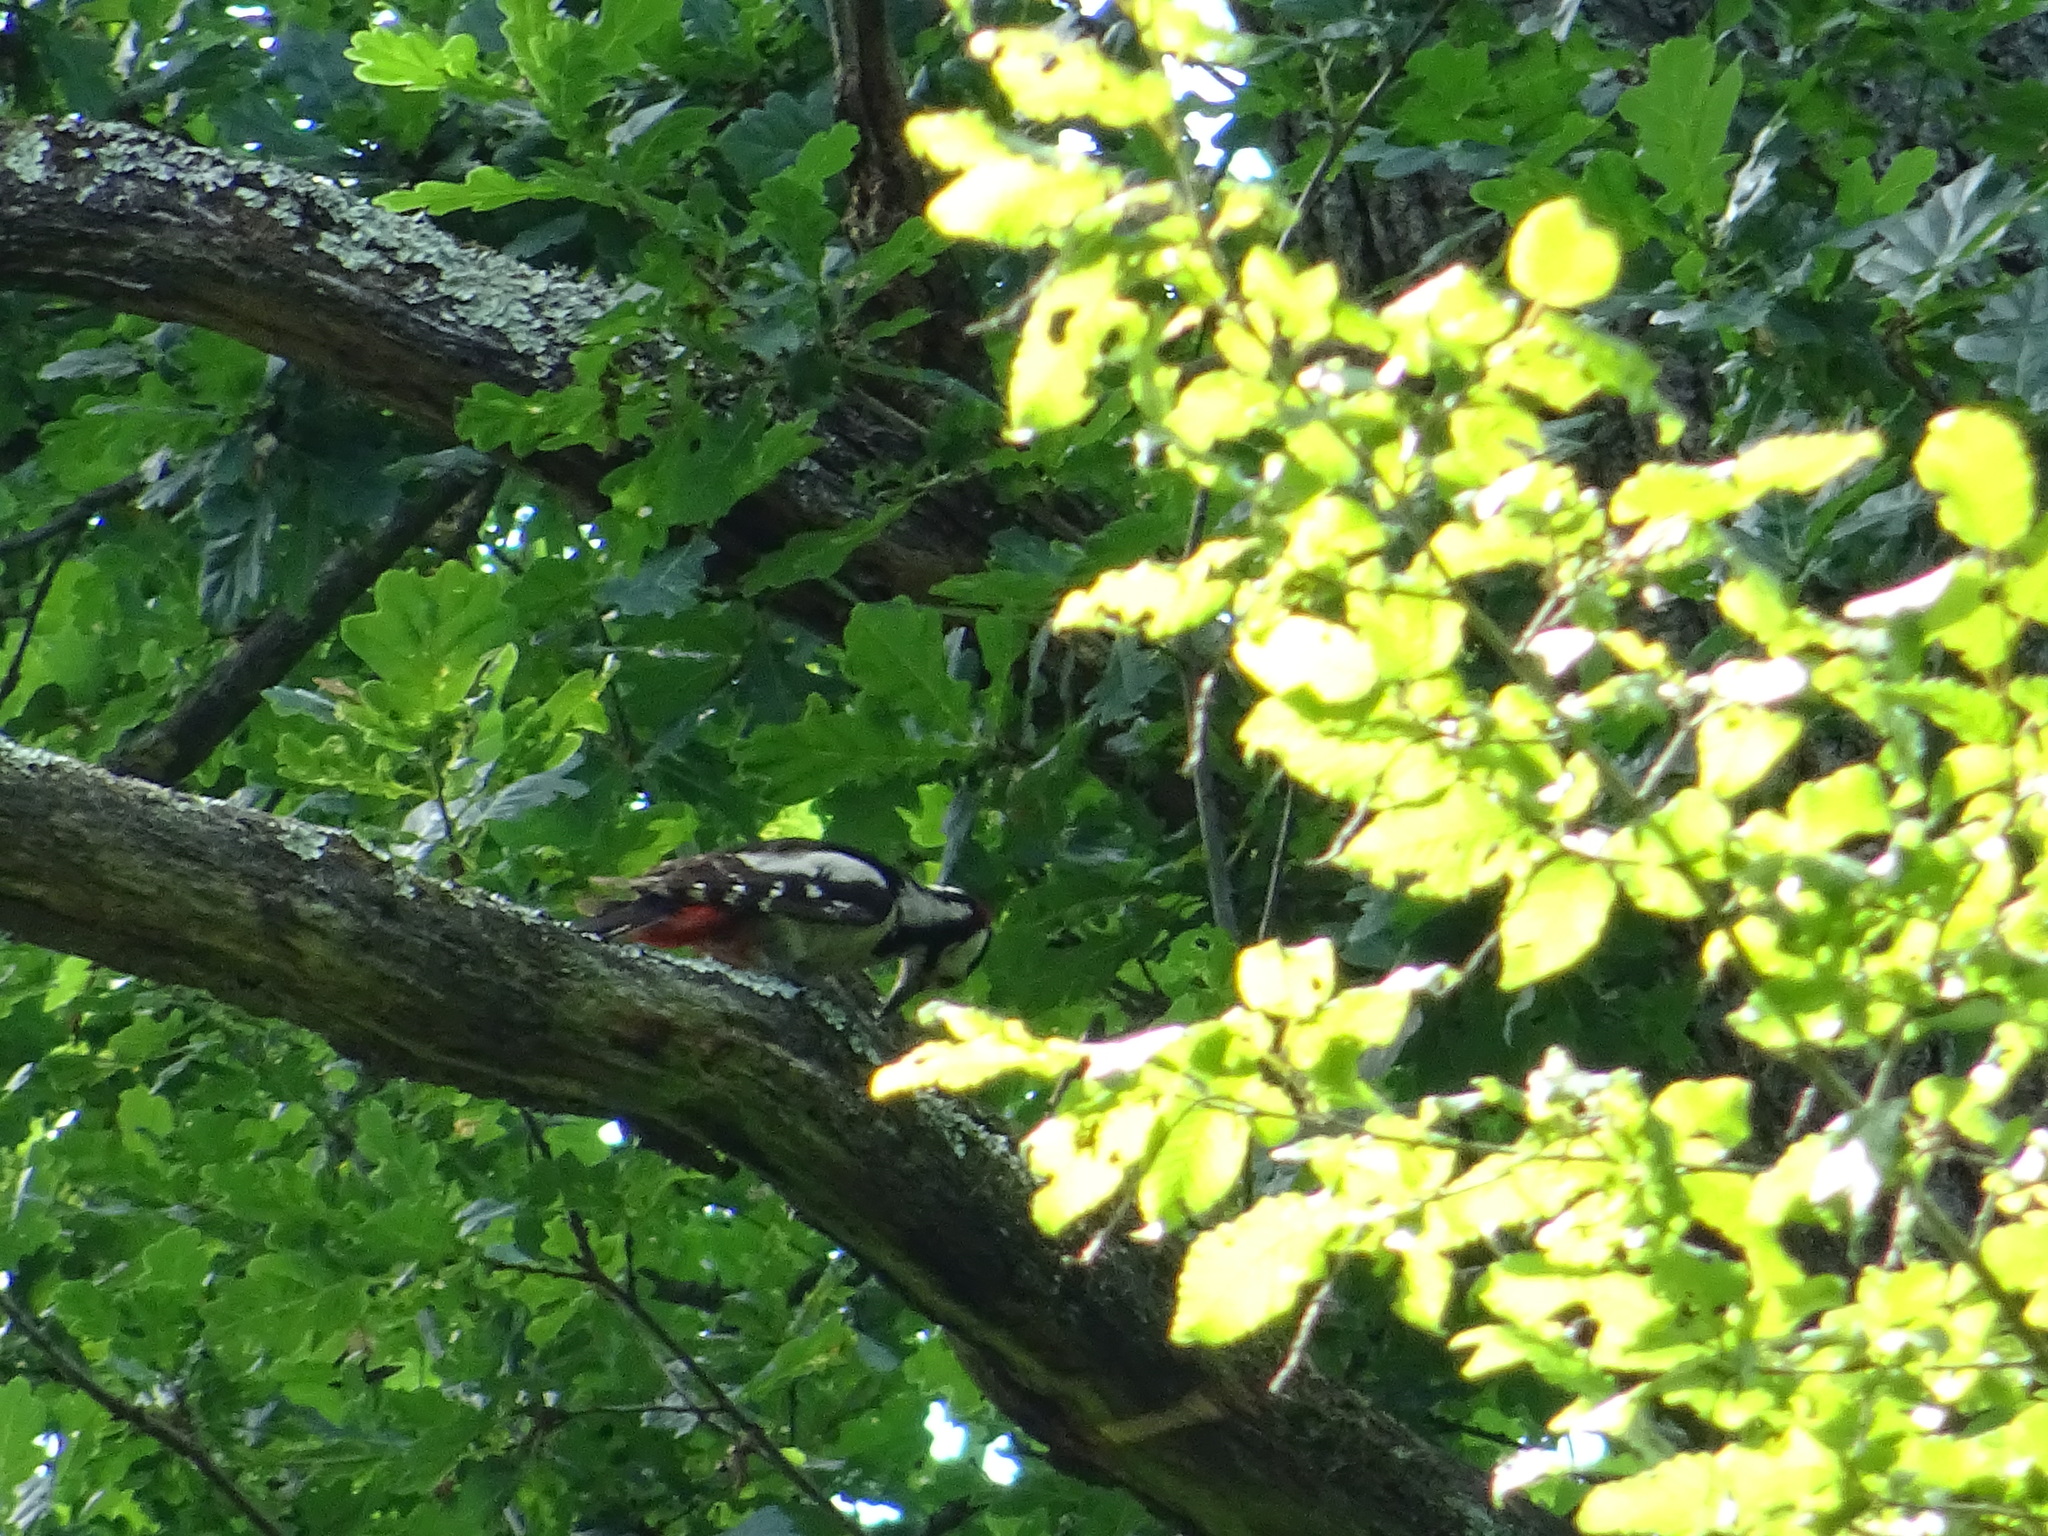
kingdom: Animalia
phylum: Chordata
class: Aves
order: Piciformes
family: Picidae
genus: Dendrocopos
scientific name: Dendrocopos major
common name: Great spotted woodpecker
